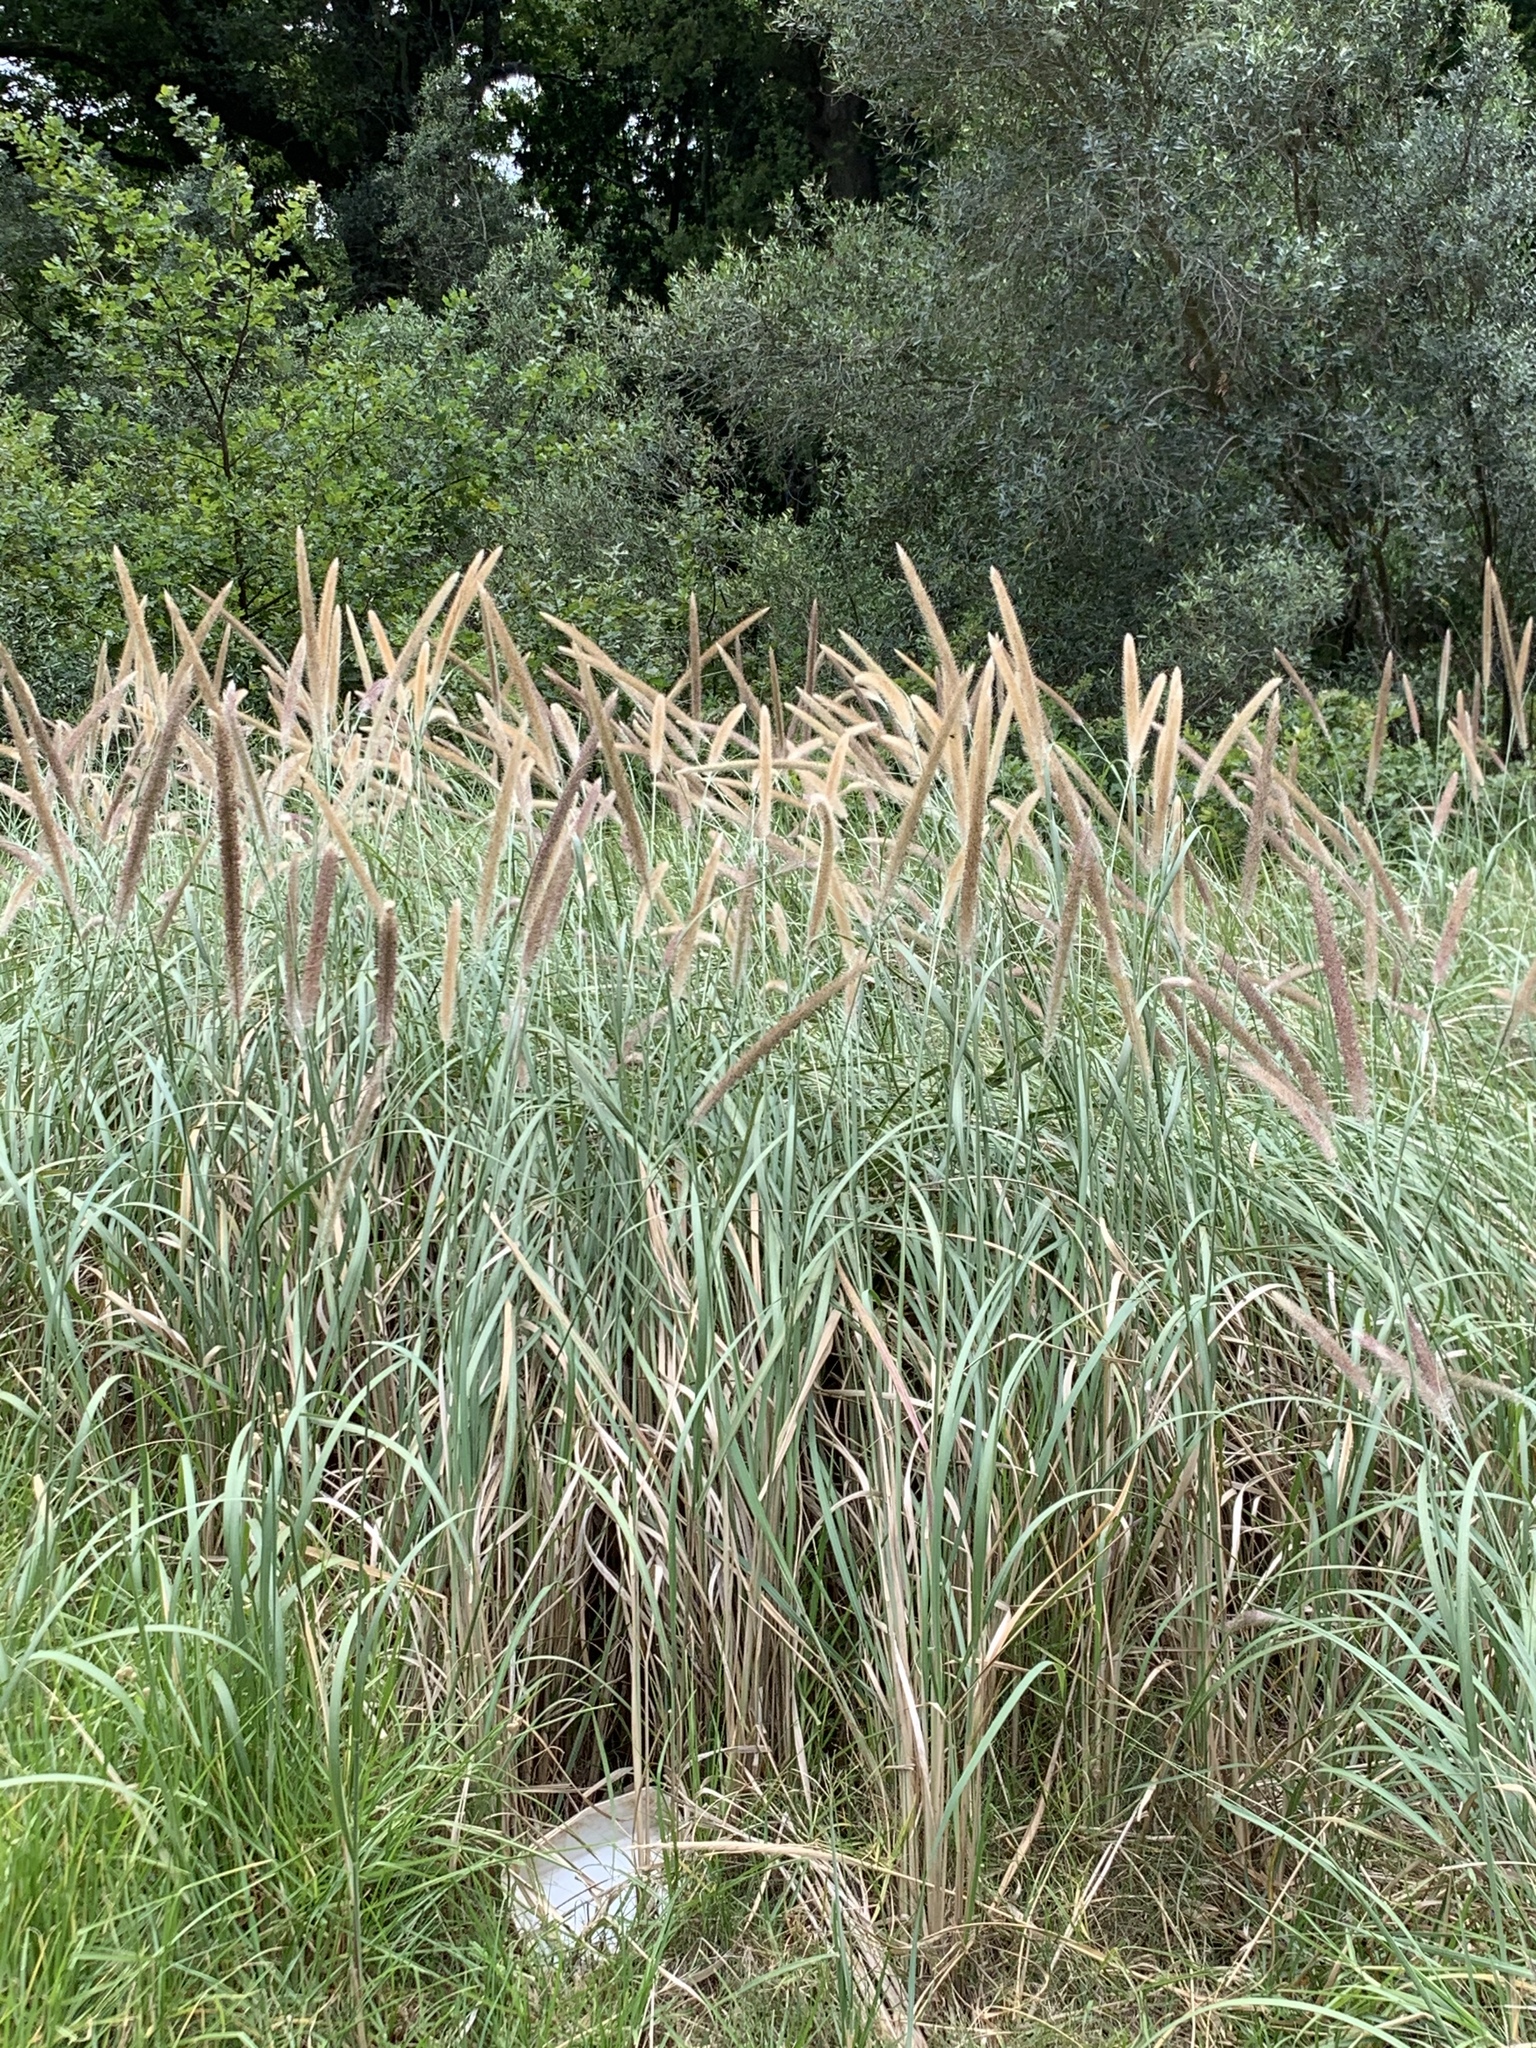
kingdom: Plantae
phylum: Tracheophyta
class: Liliopsida
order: Poales
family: Poaceae
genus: Cenchrus
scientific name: Cenchrus caudatus
